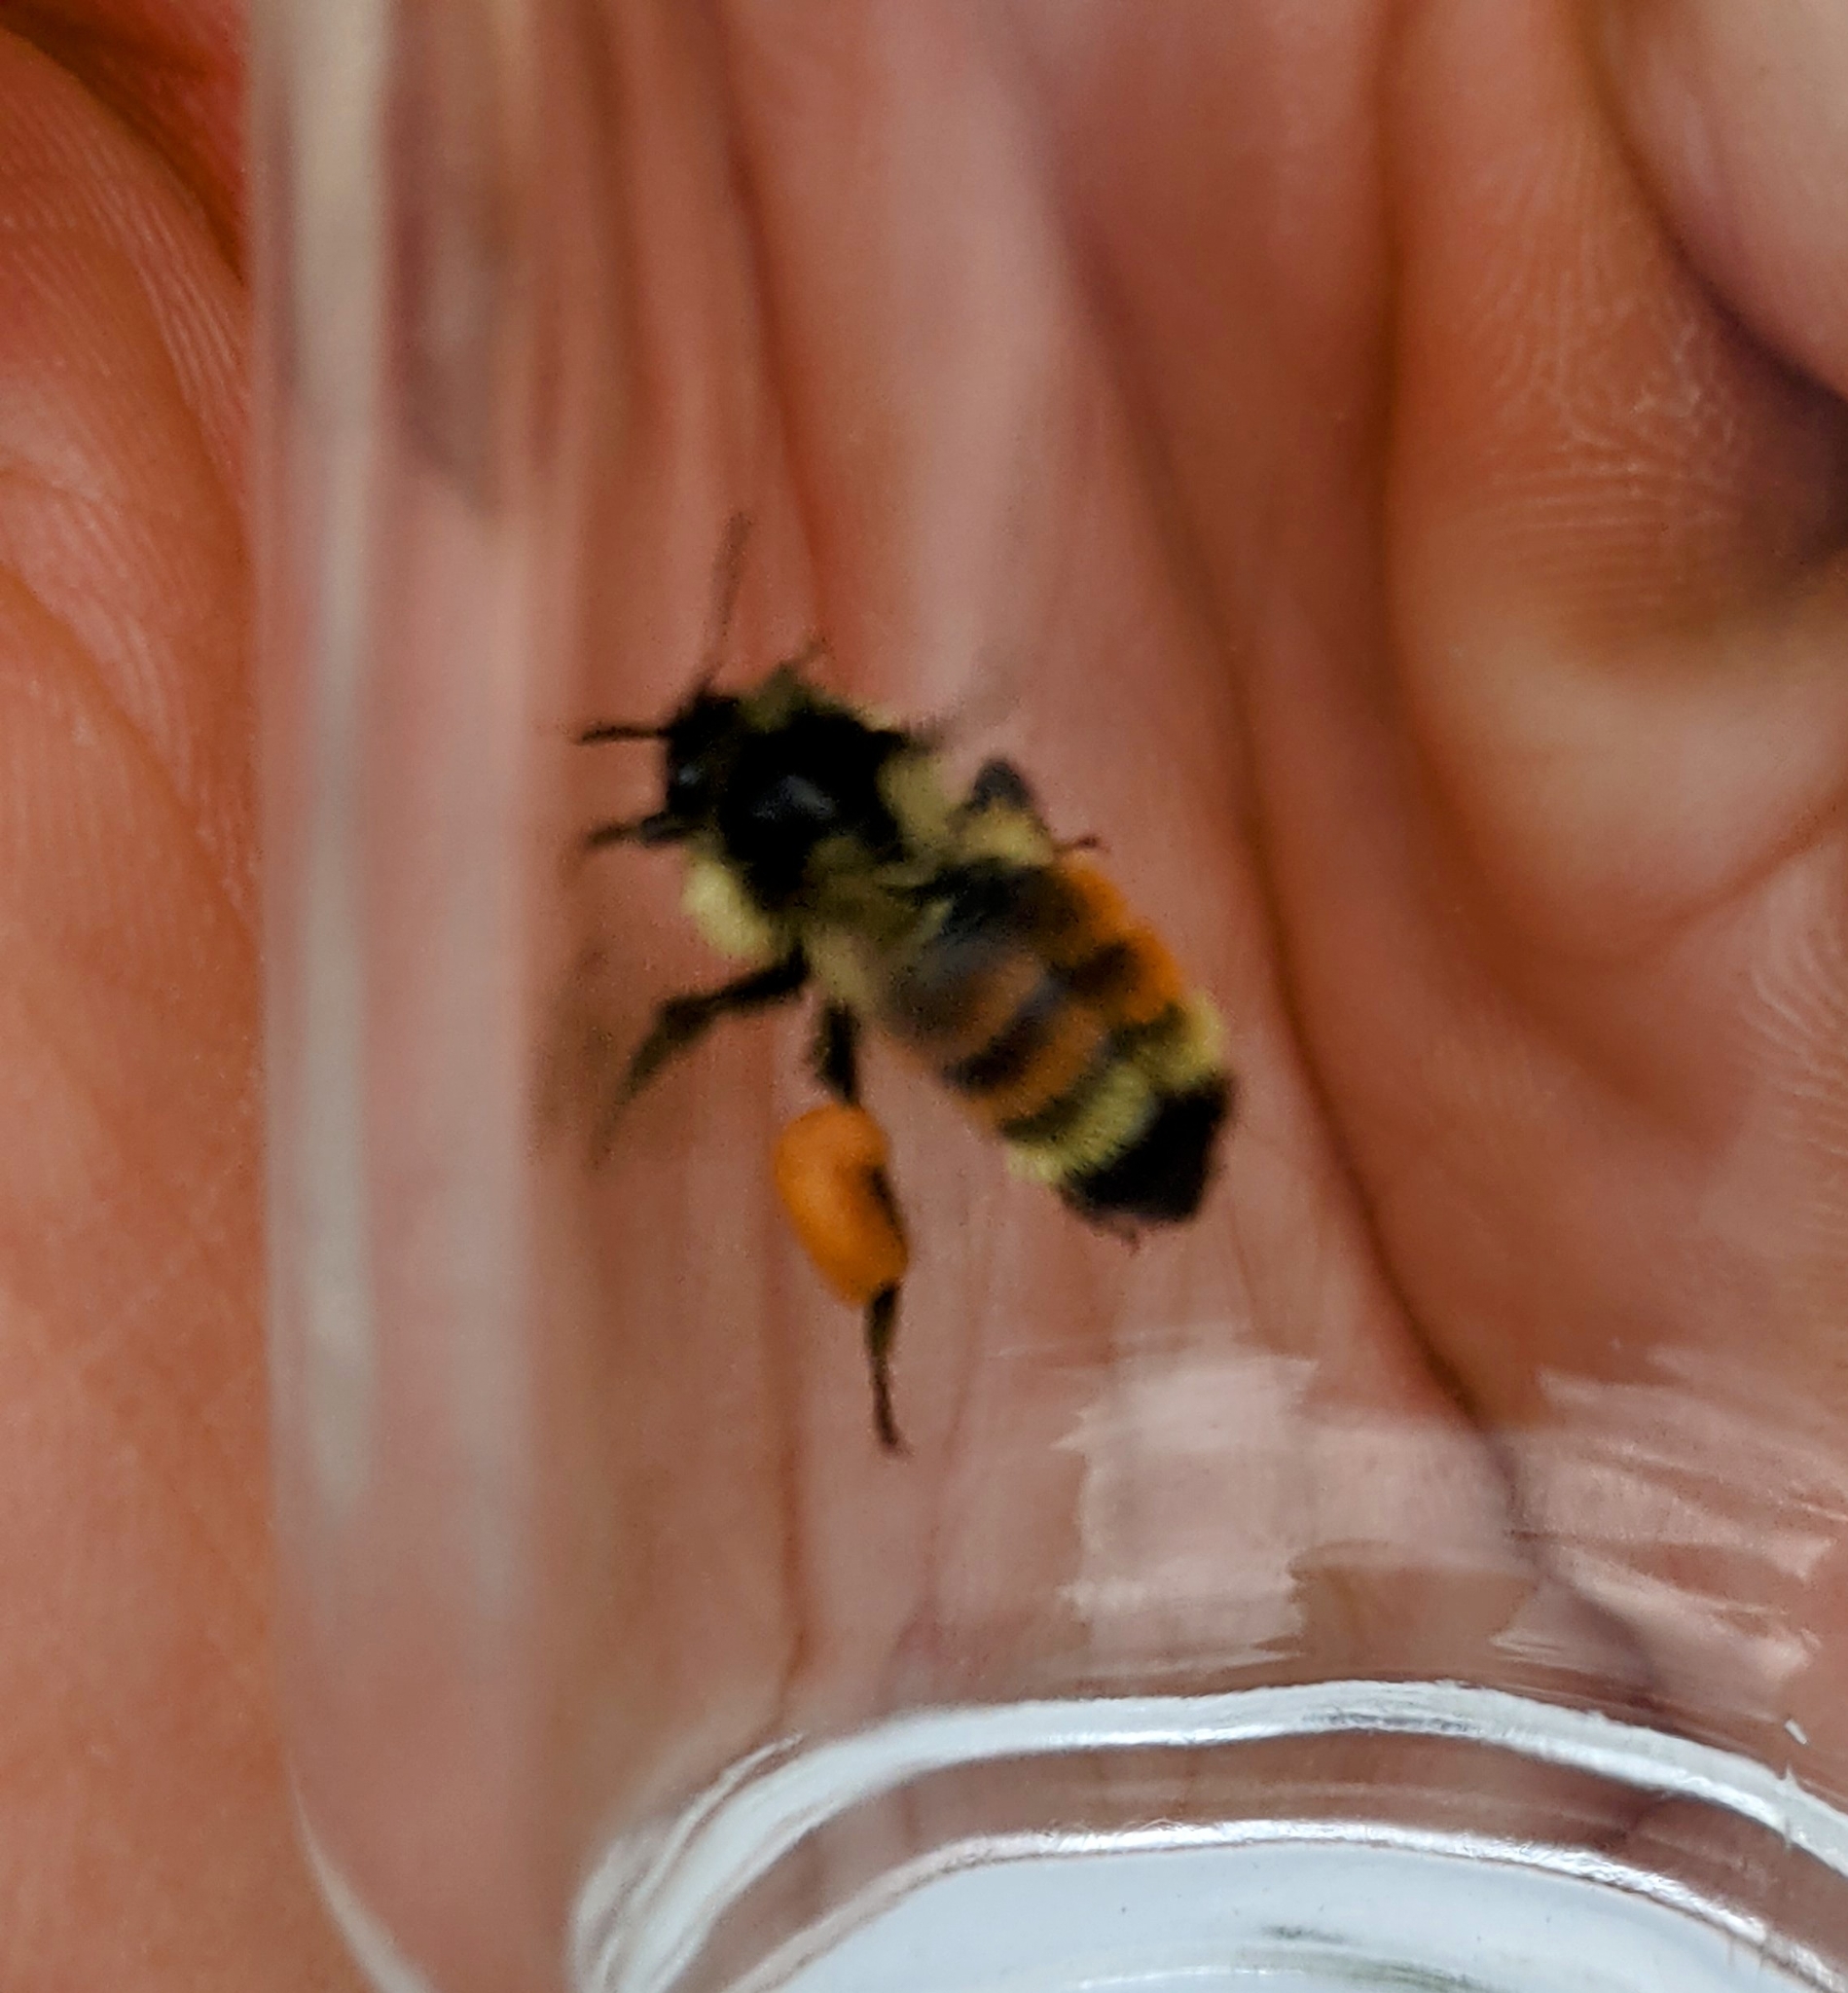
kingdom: Animalia
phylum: Arthropoda
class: Insecta
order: Hymenoptera
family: Apidae
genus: Bombus
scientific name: Bombus ternarius
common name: Tri-colored bumble bee
